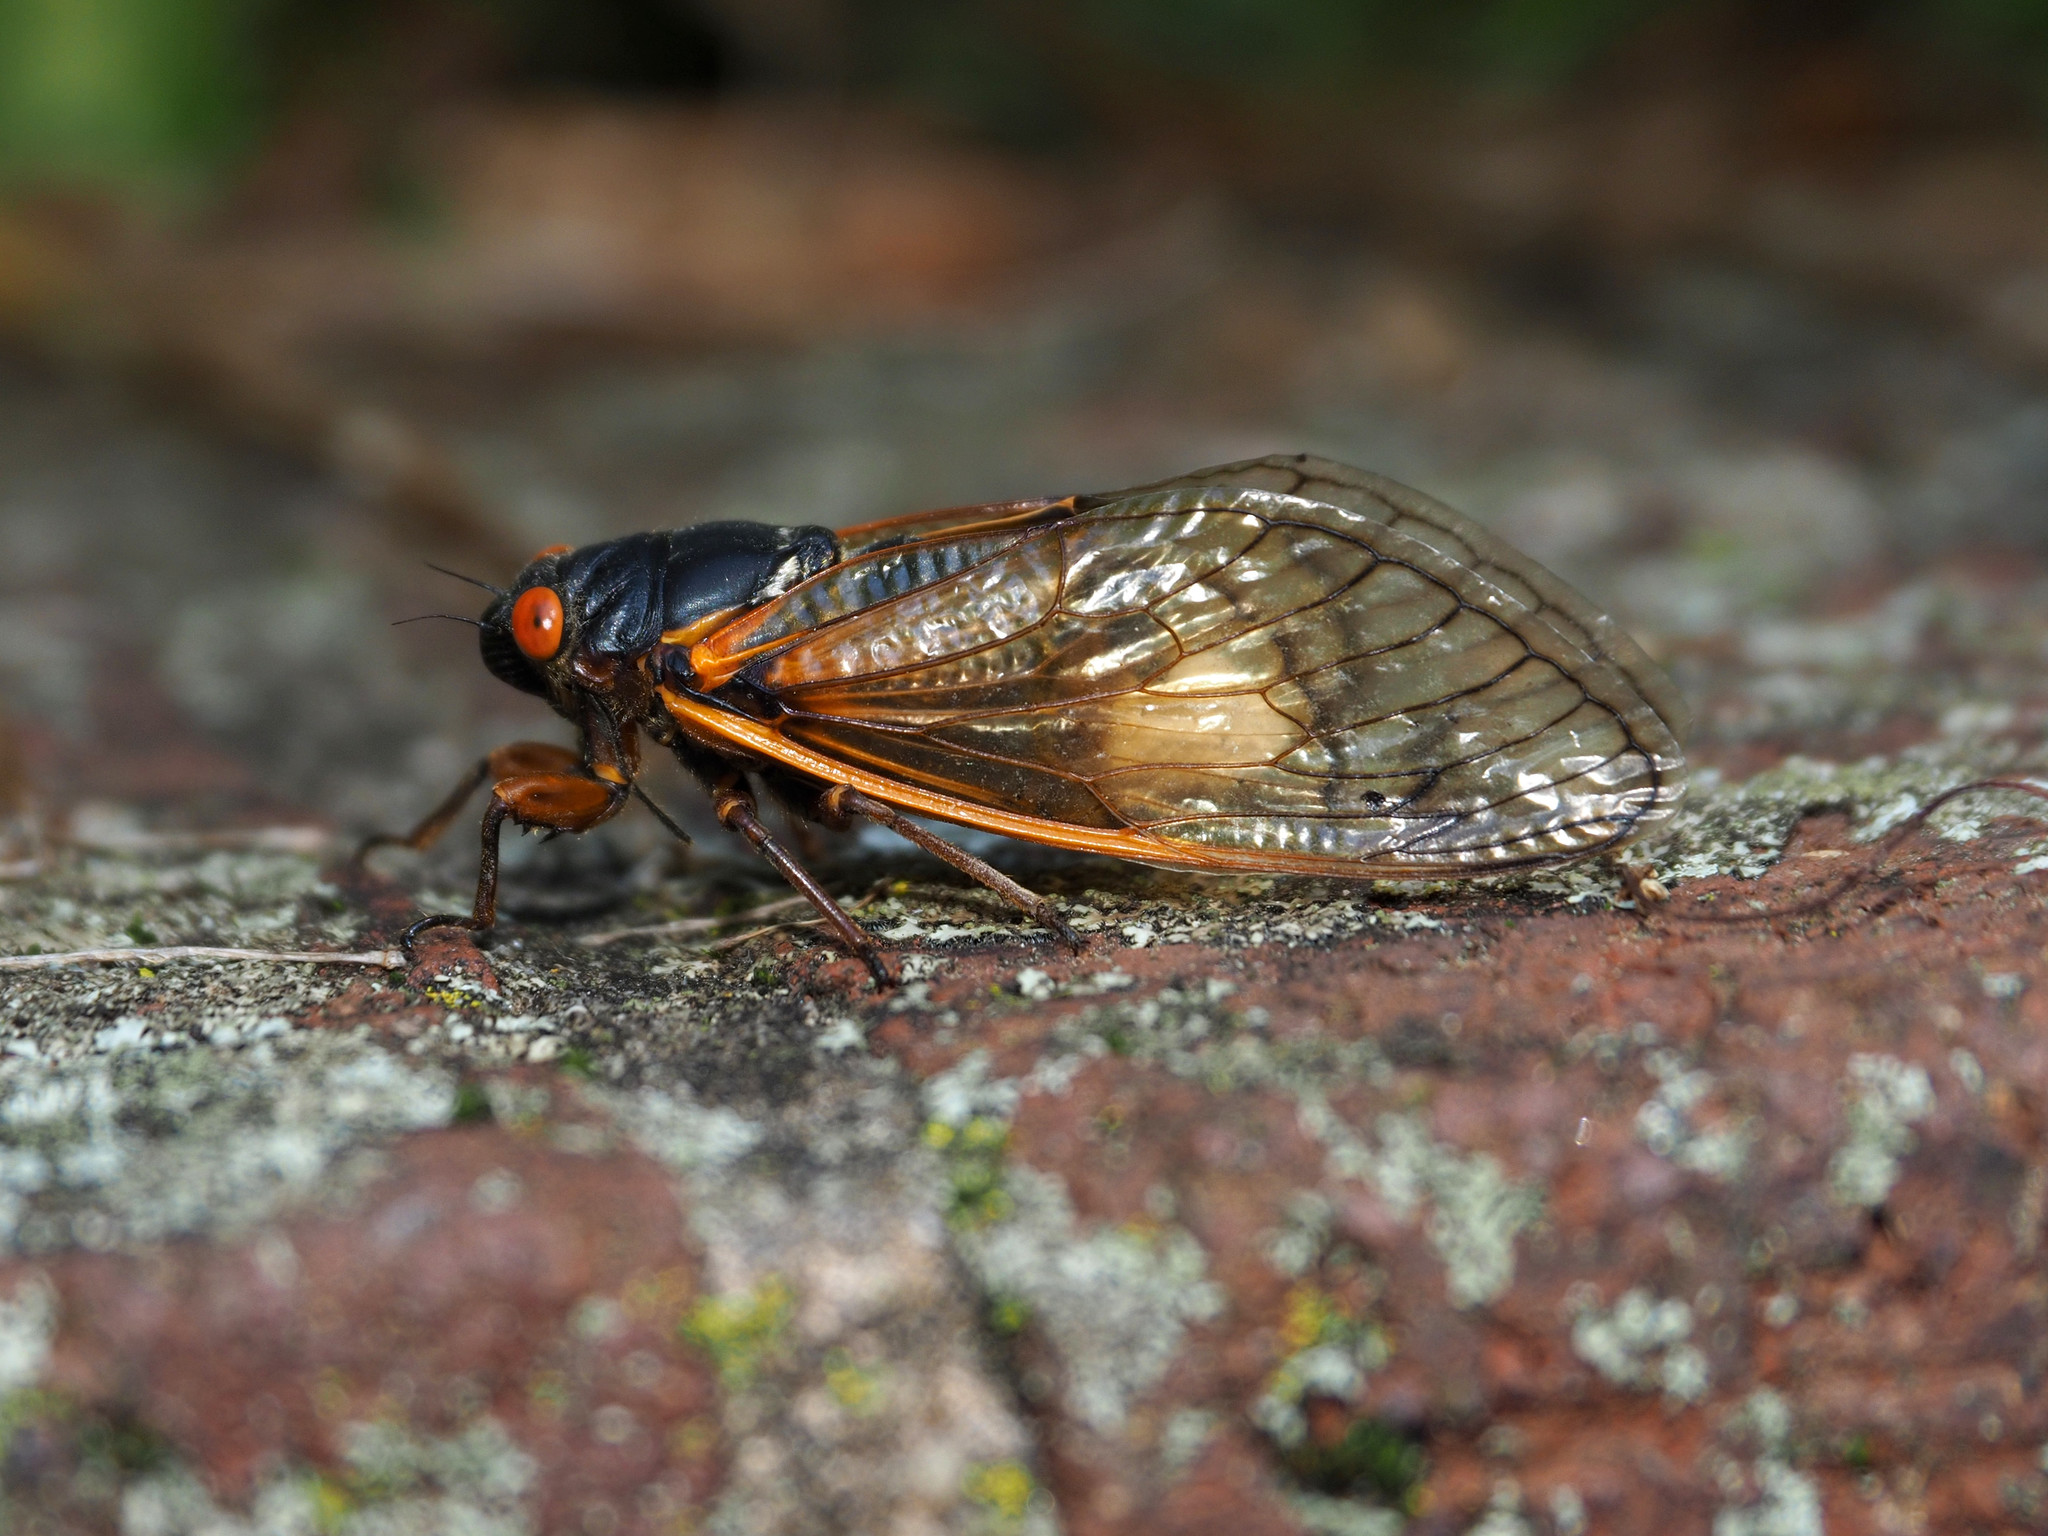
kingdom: Fungi
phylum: Entomophthoromycota
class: Entomophthoromycetes
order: Entomophthorales
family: Entomophthoraceae
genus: Massospora
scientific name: Massospora cicadina
